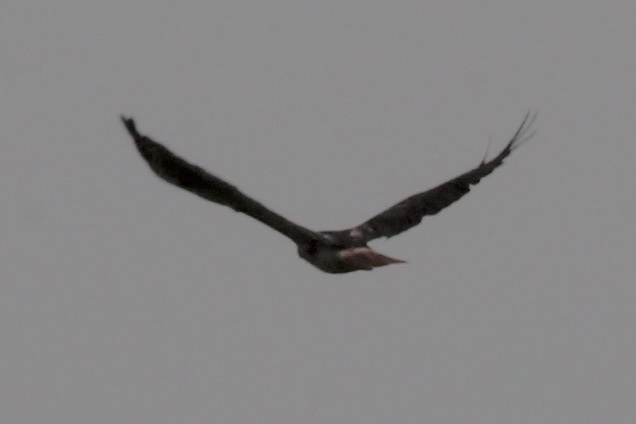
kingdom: Animalia
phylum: Chordata
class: Aves
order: Accipitriformes
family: Accipitridae
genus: Buteo
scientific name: Buteo jamaicensis
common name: Red-tailed hawk
